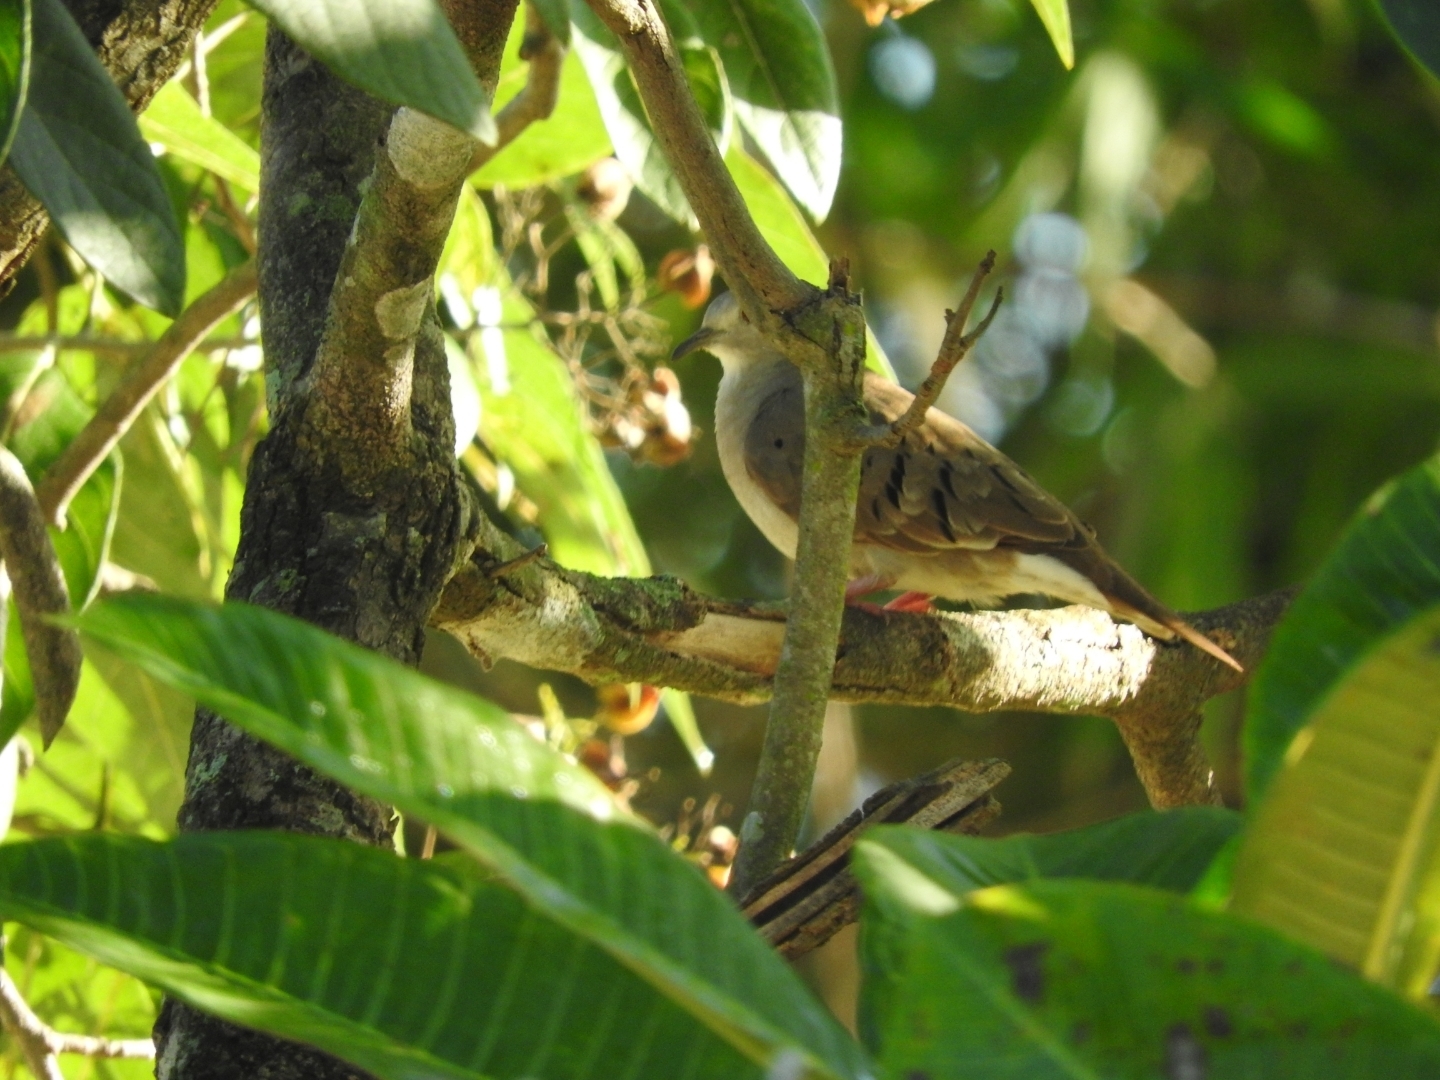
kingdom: Animalia
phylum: Chordata
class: Aves
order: Columbiformes
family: Columbidae
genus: Columbina
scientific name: Columbina minuta
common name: Plain-breasted ground dove
